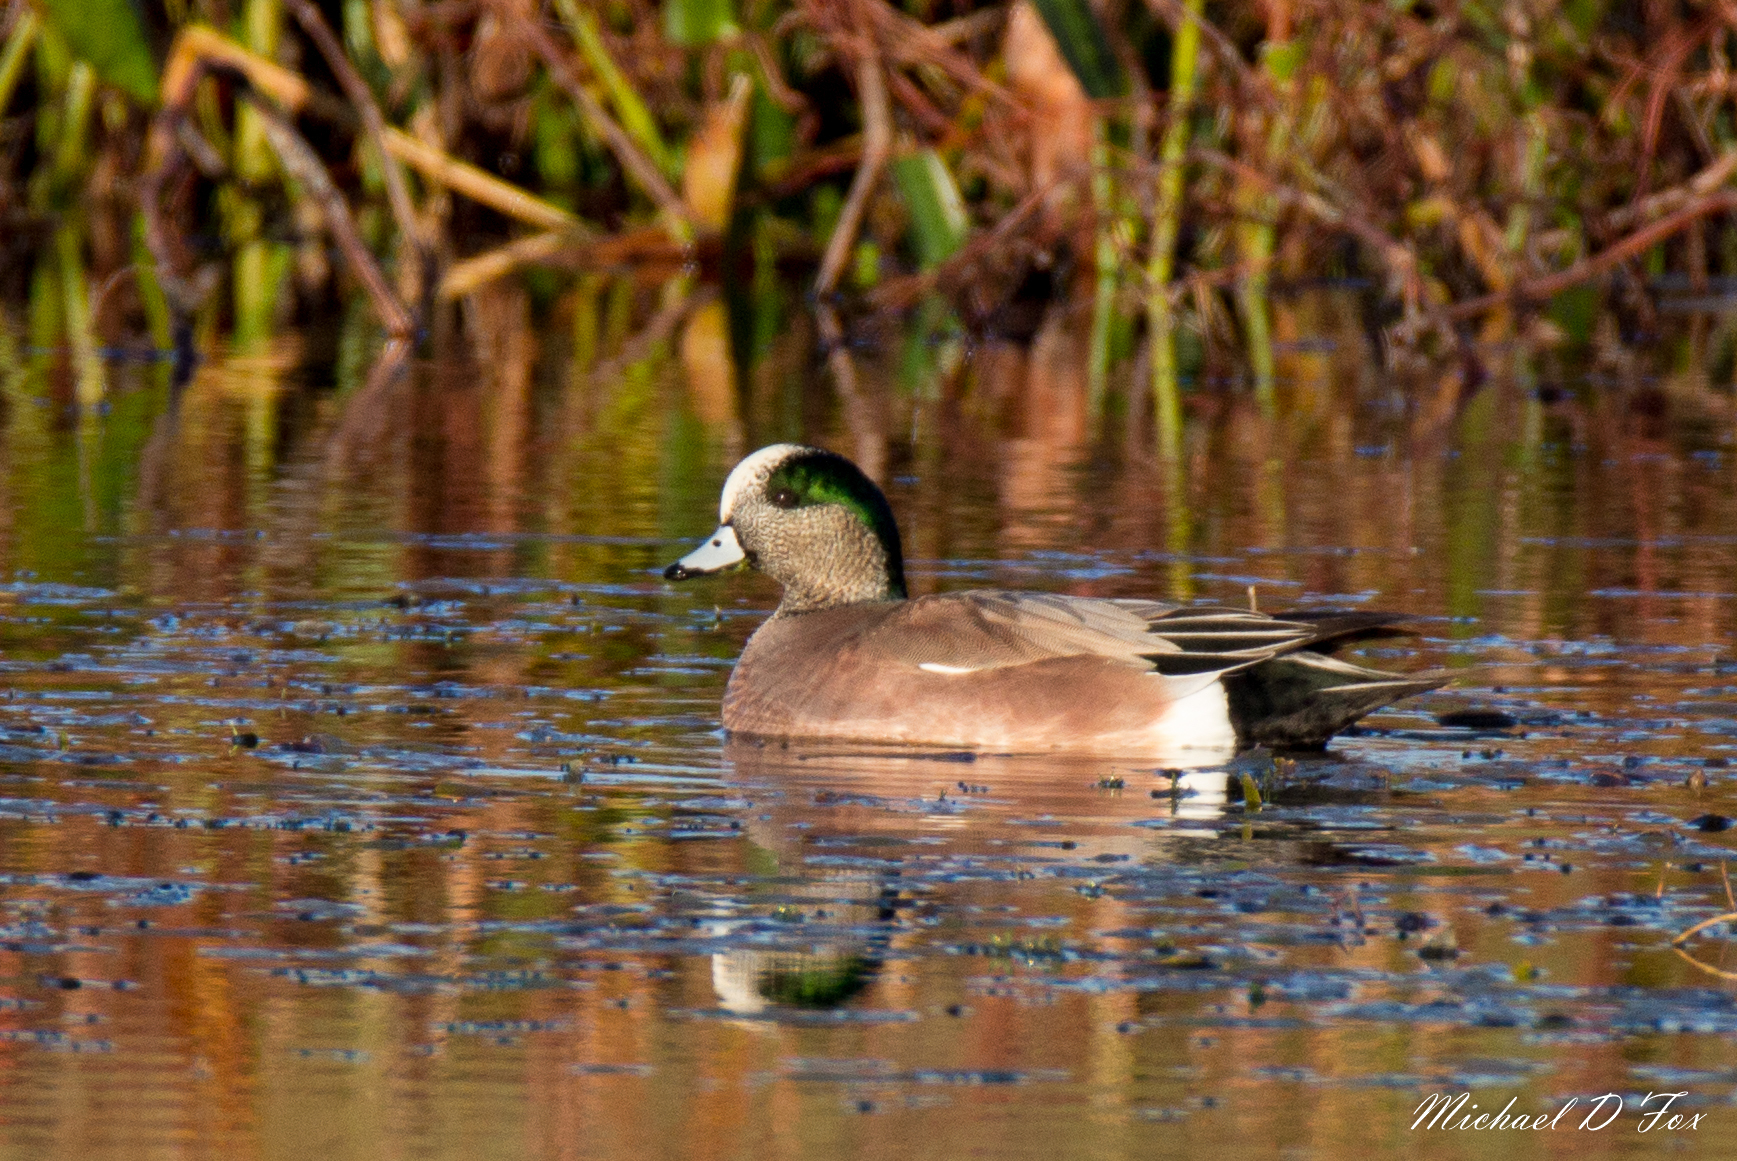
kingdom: Animalia
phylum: Chordata
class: Aves
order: Anseriformes
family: Anatidae
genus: Mareca
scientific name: Mareca americana
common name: American wigeon
